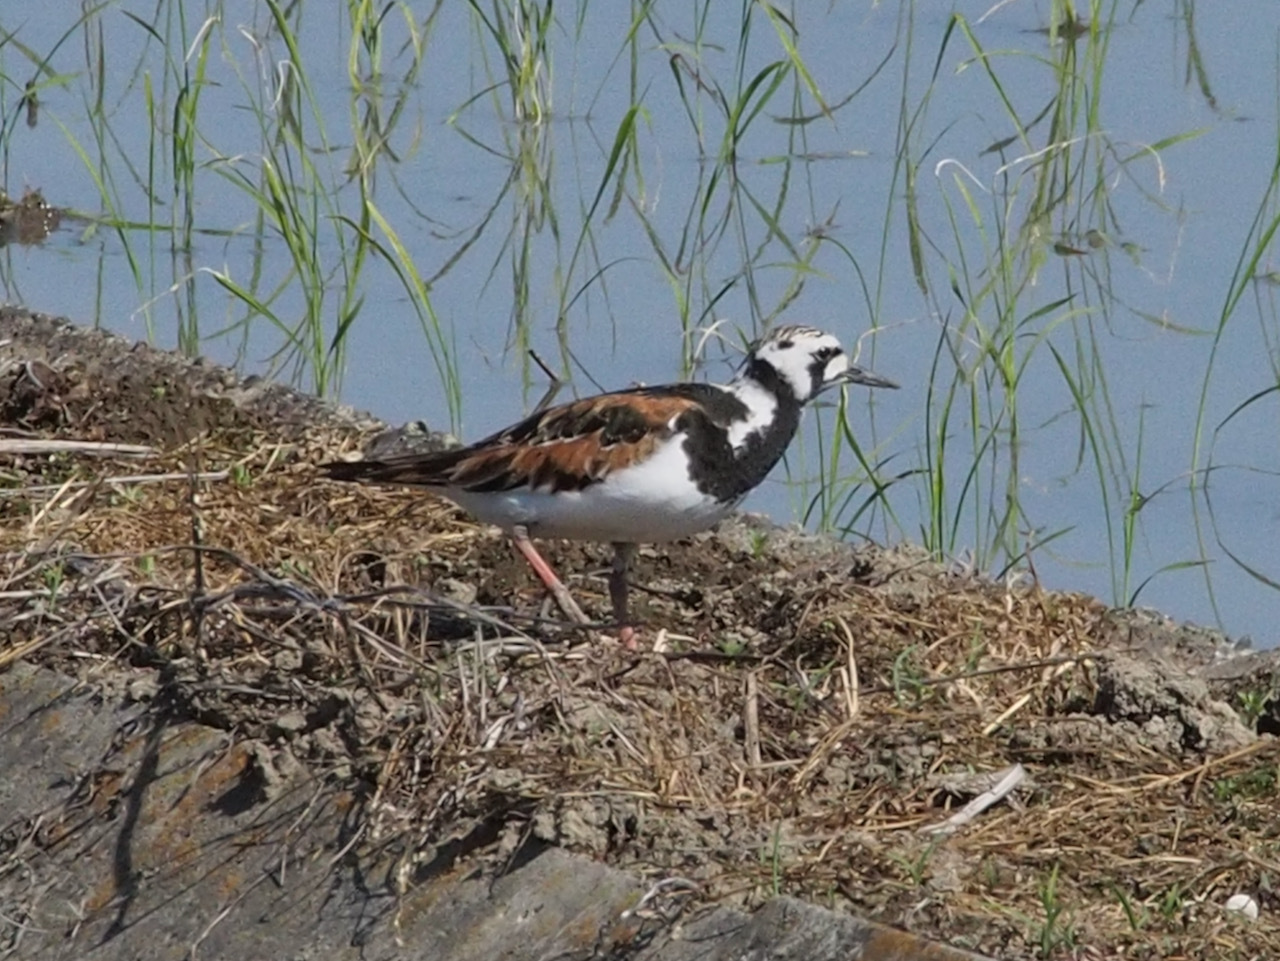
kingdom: Animalia
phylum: Chordata
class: Aves
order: Charadriiformes
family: Scolopacidae
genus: Arenaria
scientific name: Arenaria interpres
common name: Ruddy turnstone
